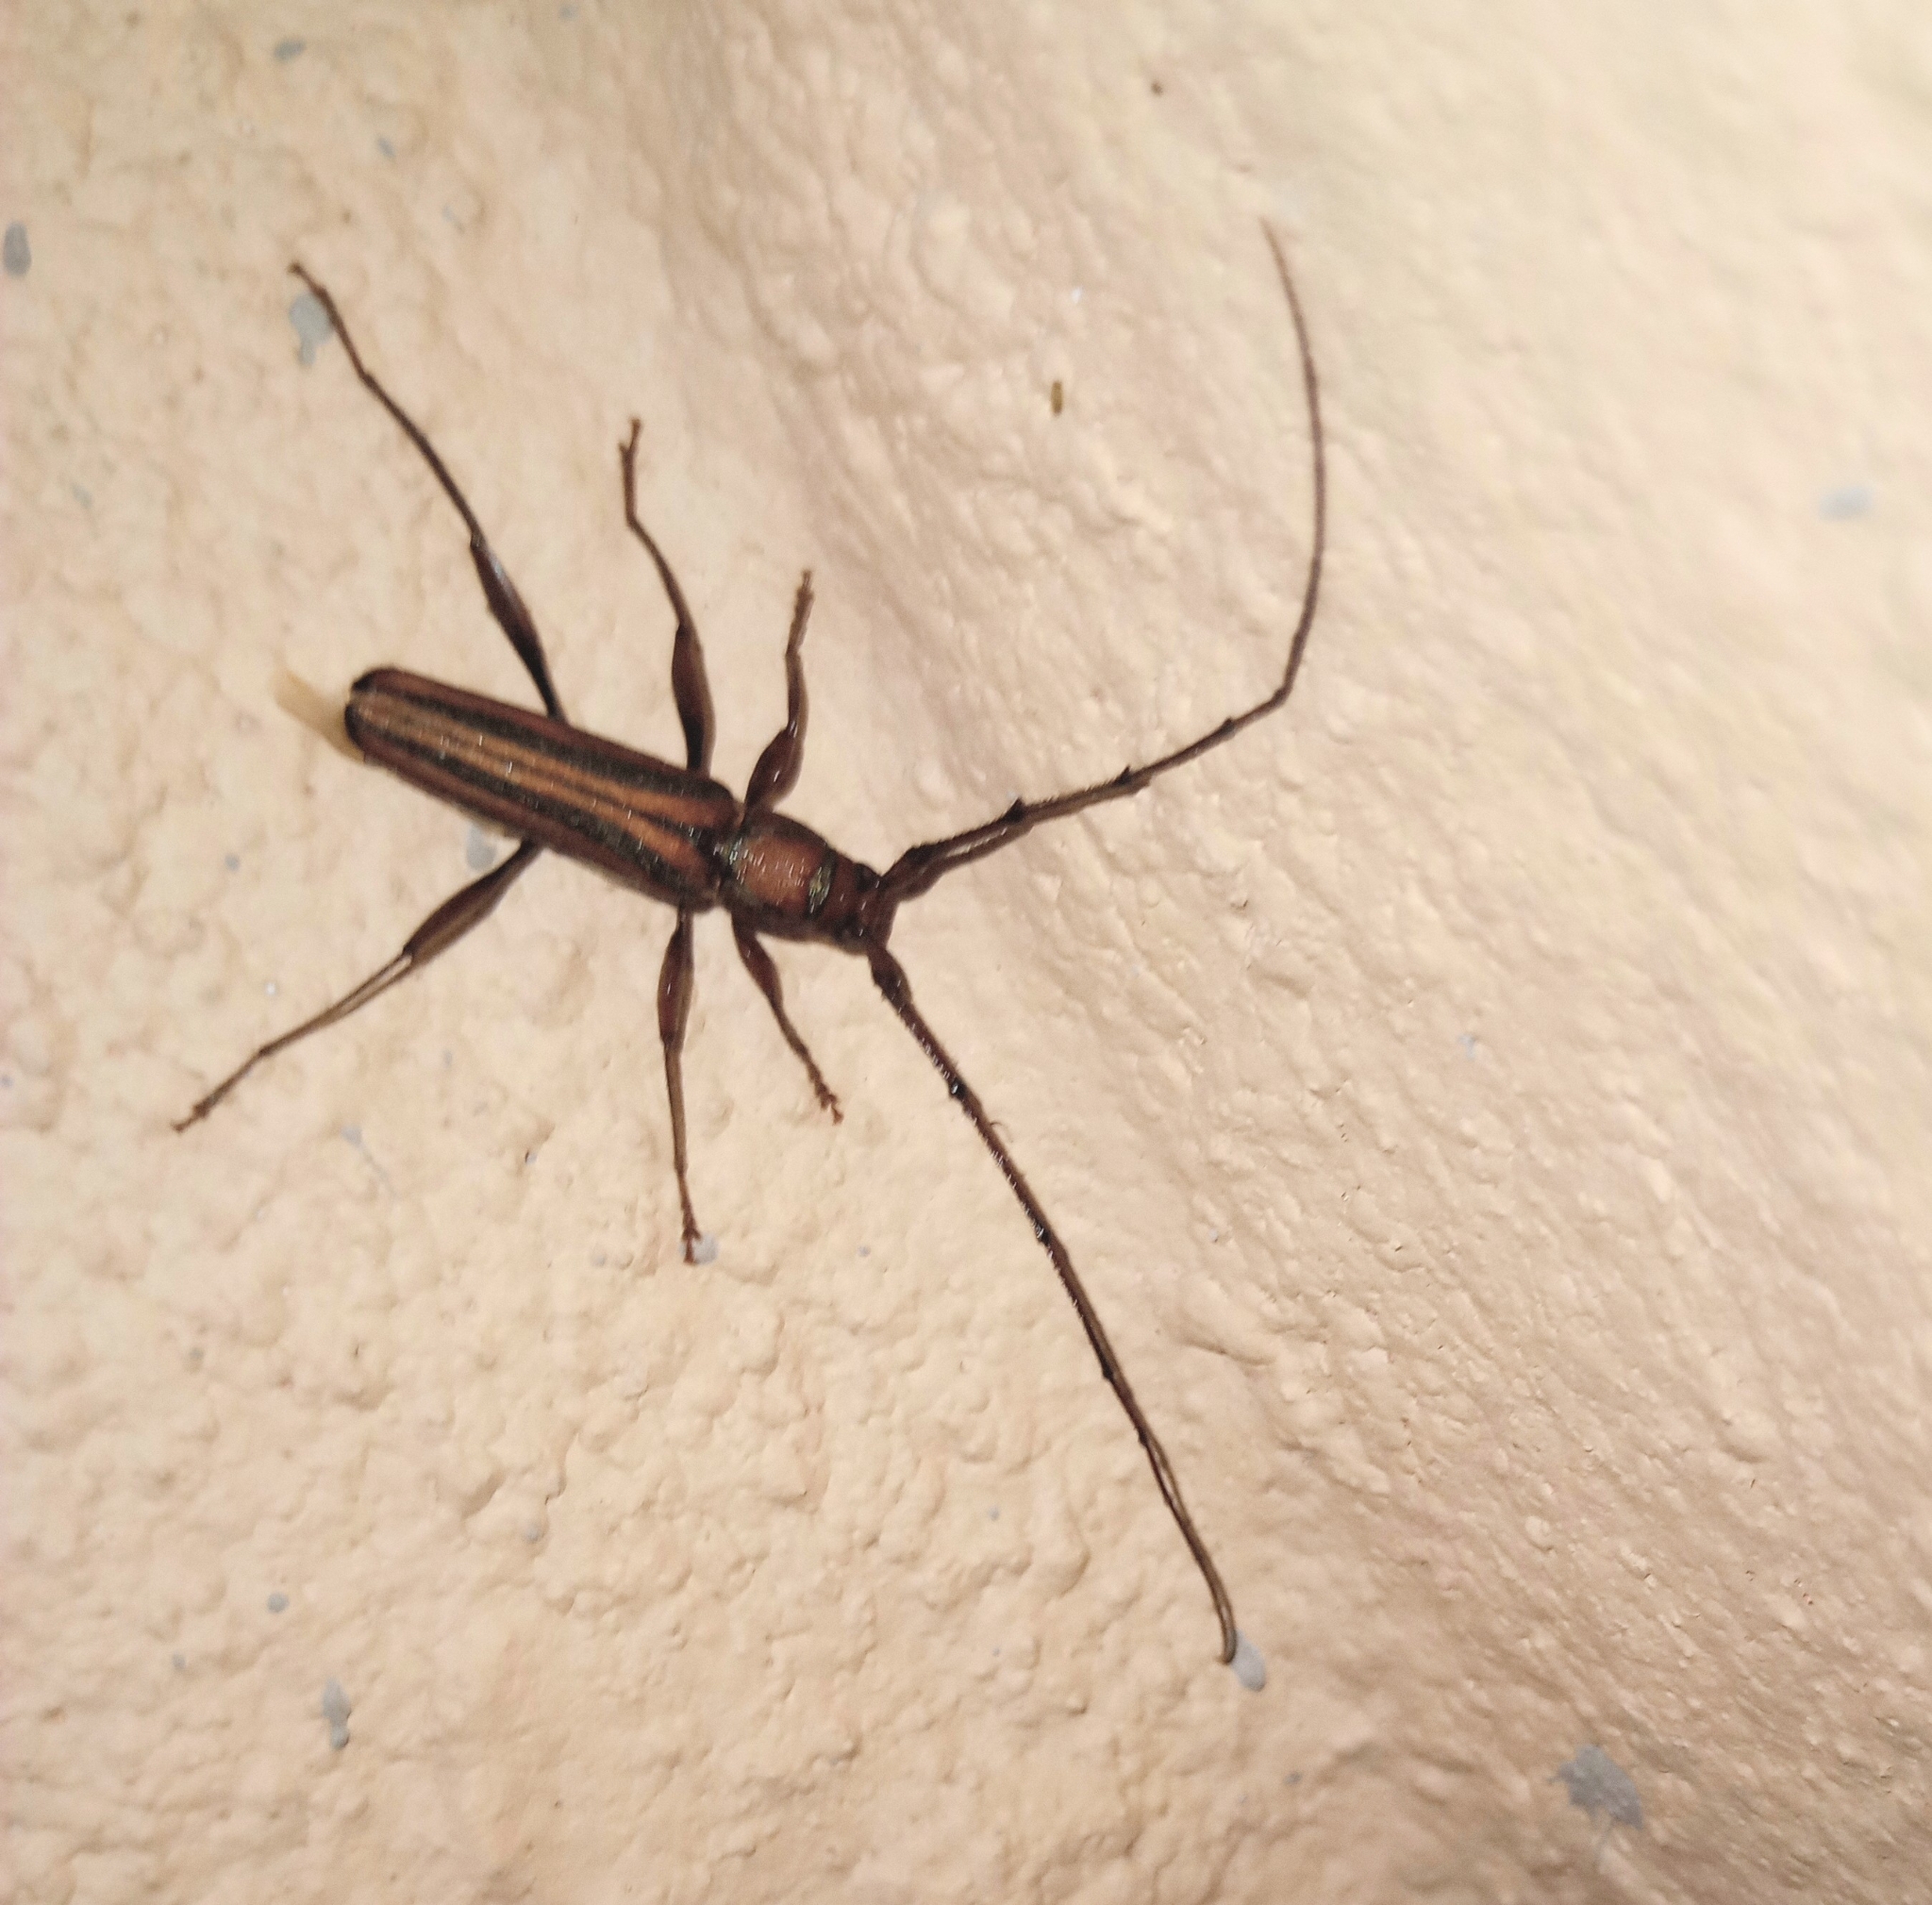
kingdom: Animalia
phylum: Arthropoda
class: Insecta
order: Coleoptera
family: Cerambycidae
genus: Xystrocera
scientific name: Xystrocera globosa
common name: Peach-tree longhorn
